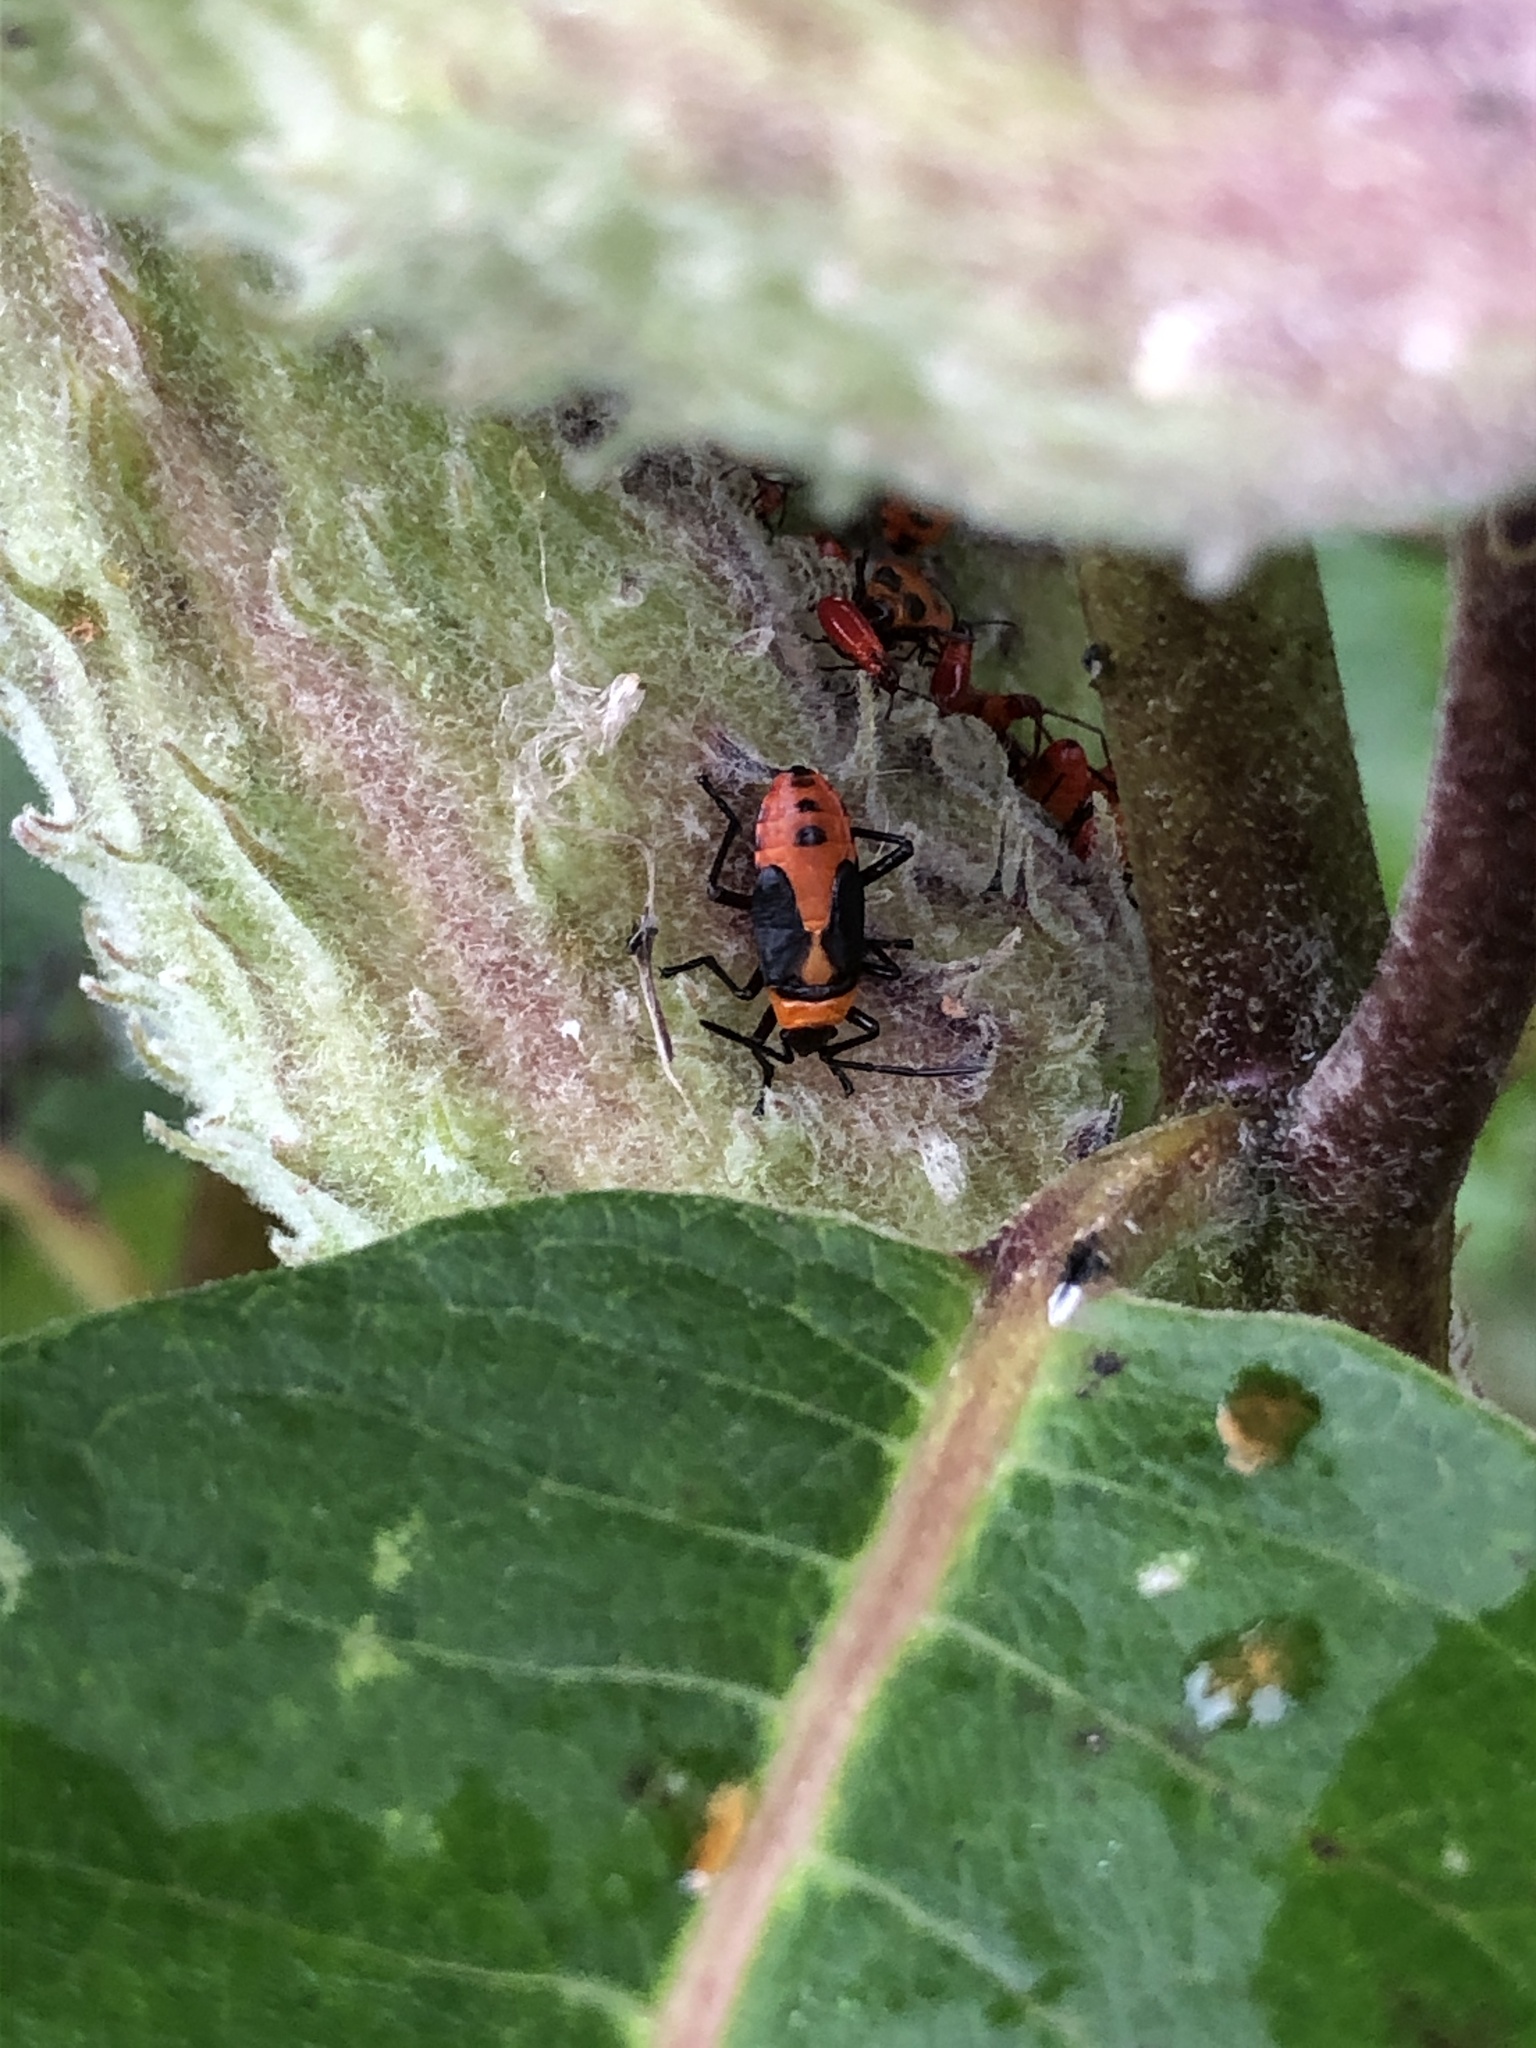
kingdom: Animalia
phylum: Arthropoda
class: Insecta
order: Hemiptera
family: Lygaeidae
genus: Oncopeltus
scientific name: Oncopeltus fasciatus
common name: Large milkweed bug
